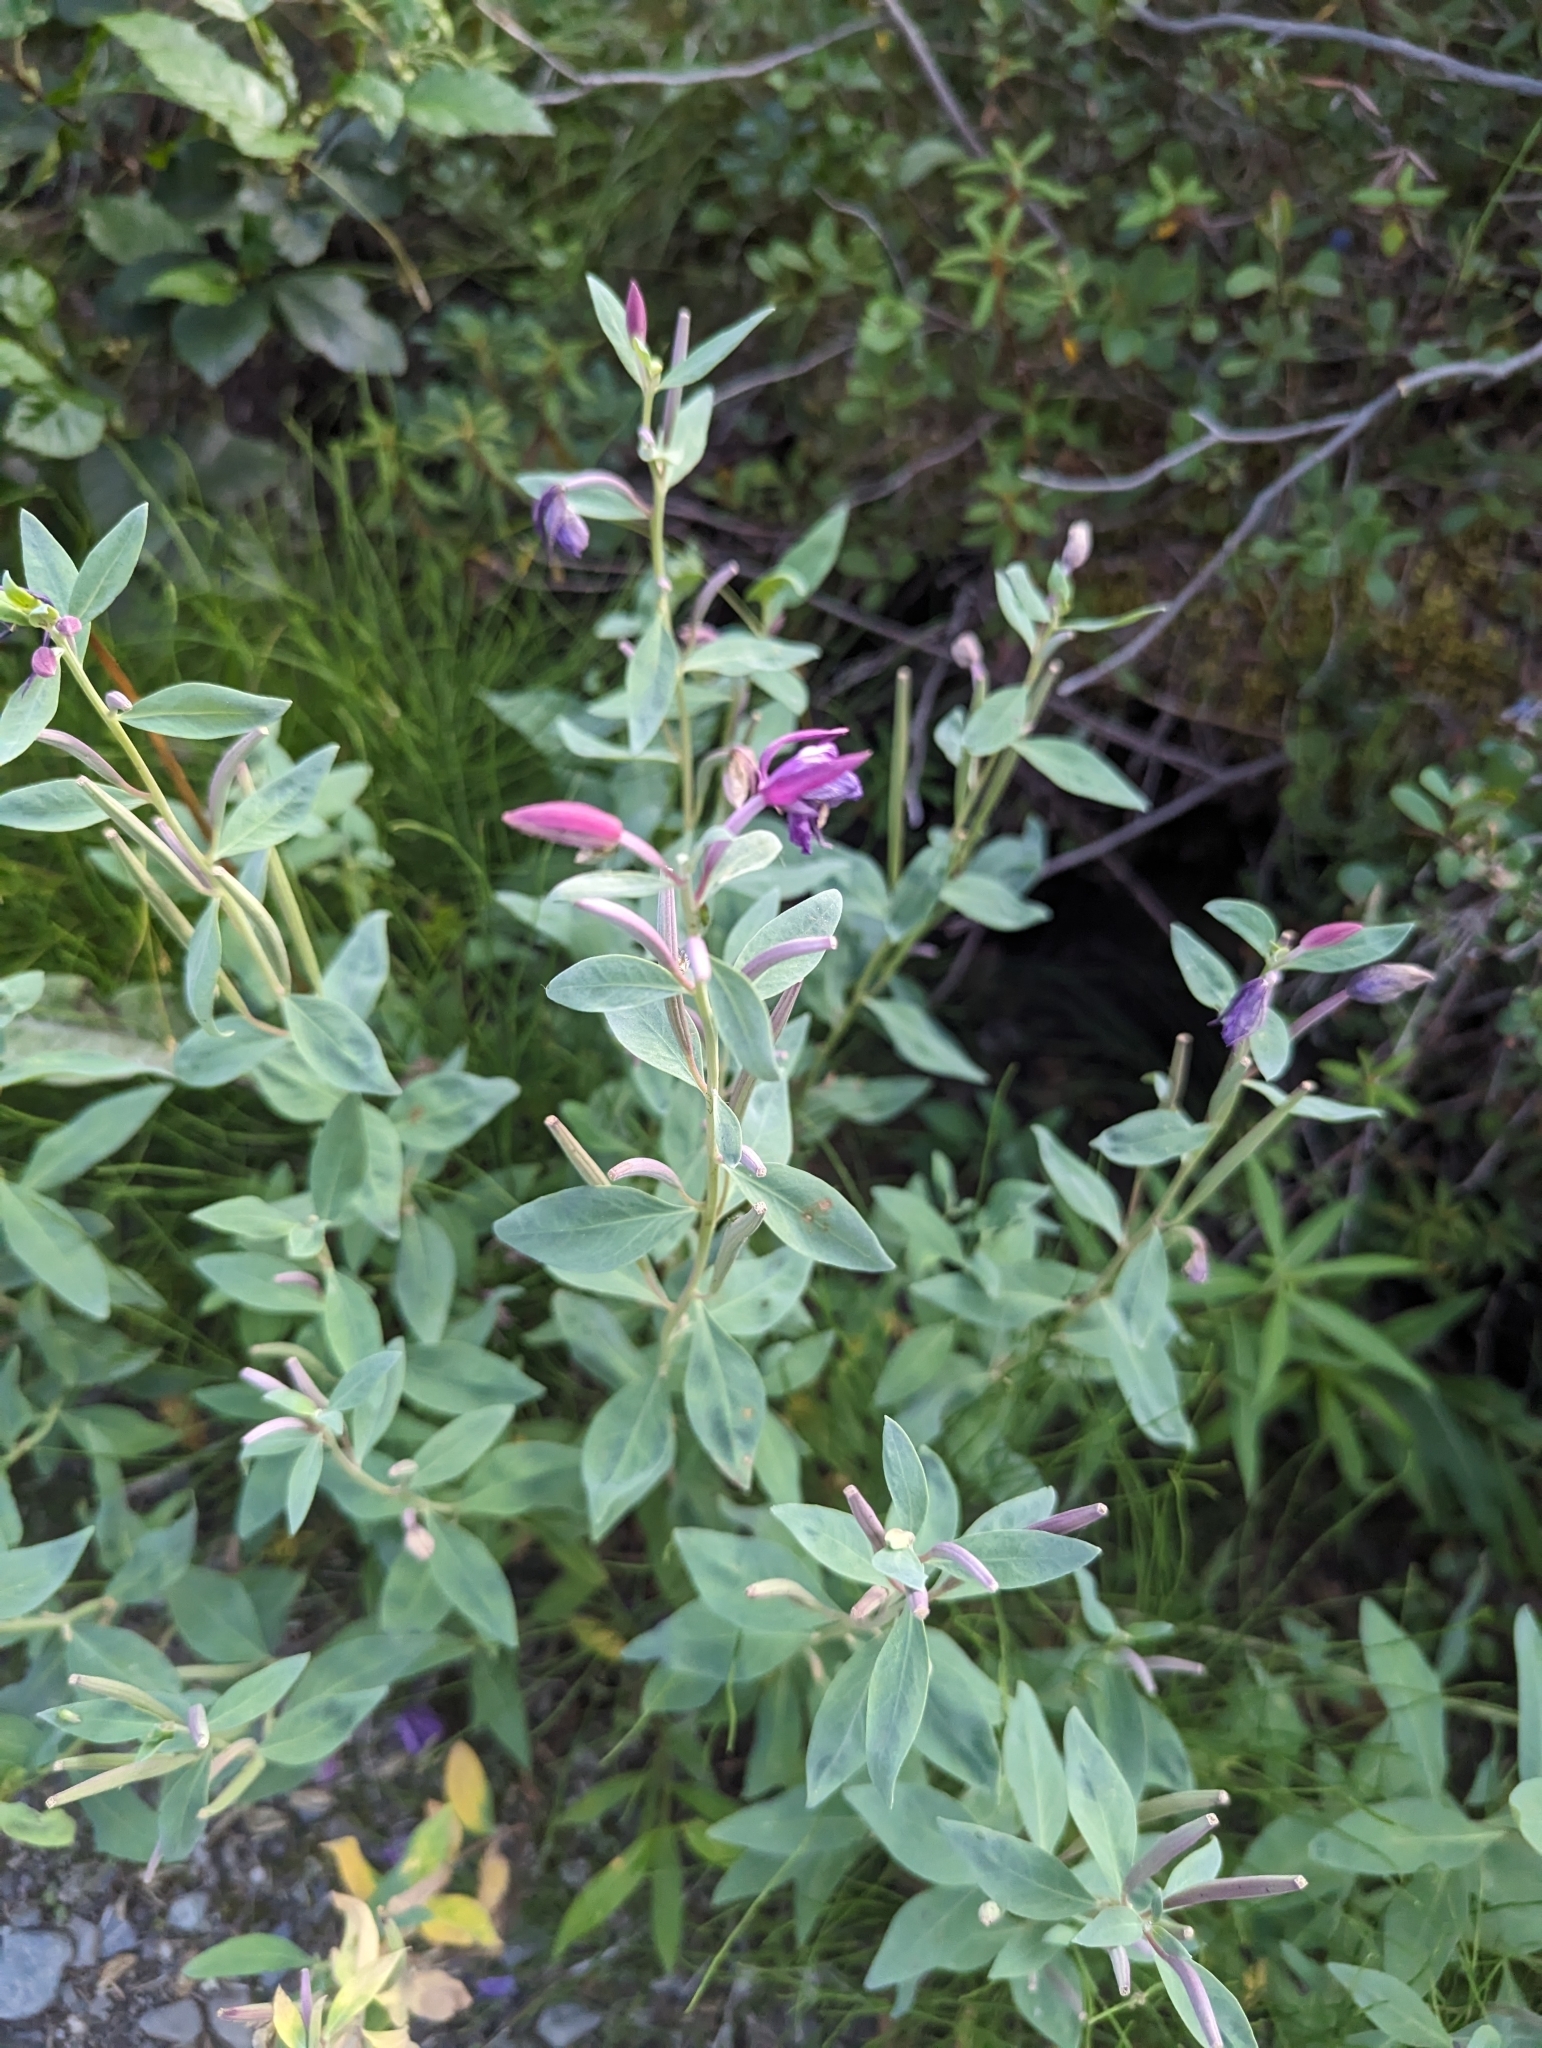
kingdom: Plantae
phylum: Tracheophyta
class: Magnoliopsida
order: Myrtales
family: Onagraceae
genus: Chamaenerion
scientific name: Chamaenerion latifolium
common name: Dwarf fireweed
